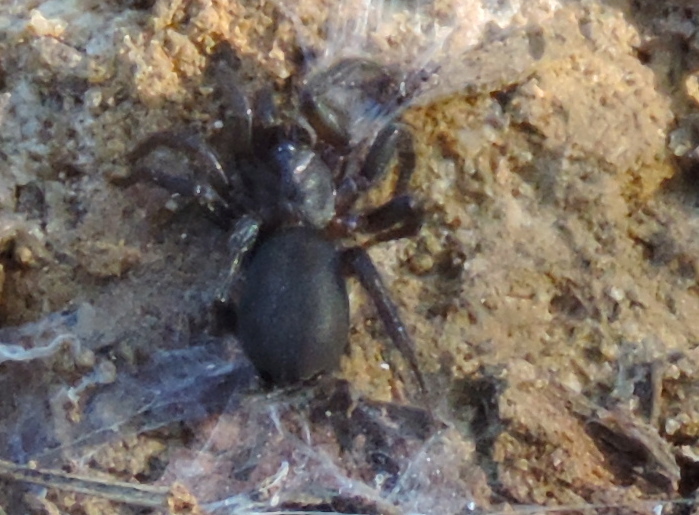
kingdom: Animalia
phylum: Arthropoda
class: Arachnida
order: Araneae
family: Euagridae
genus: Euagrus
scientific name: Euagrus gertschi
